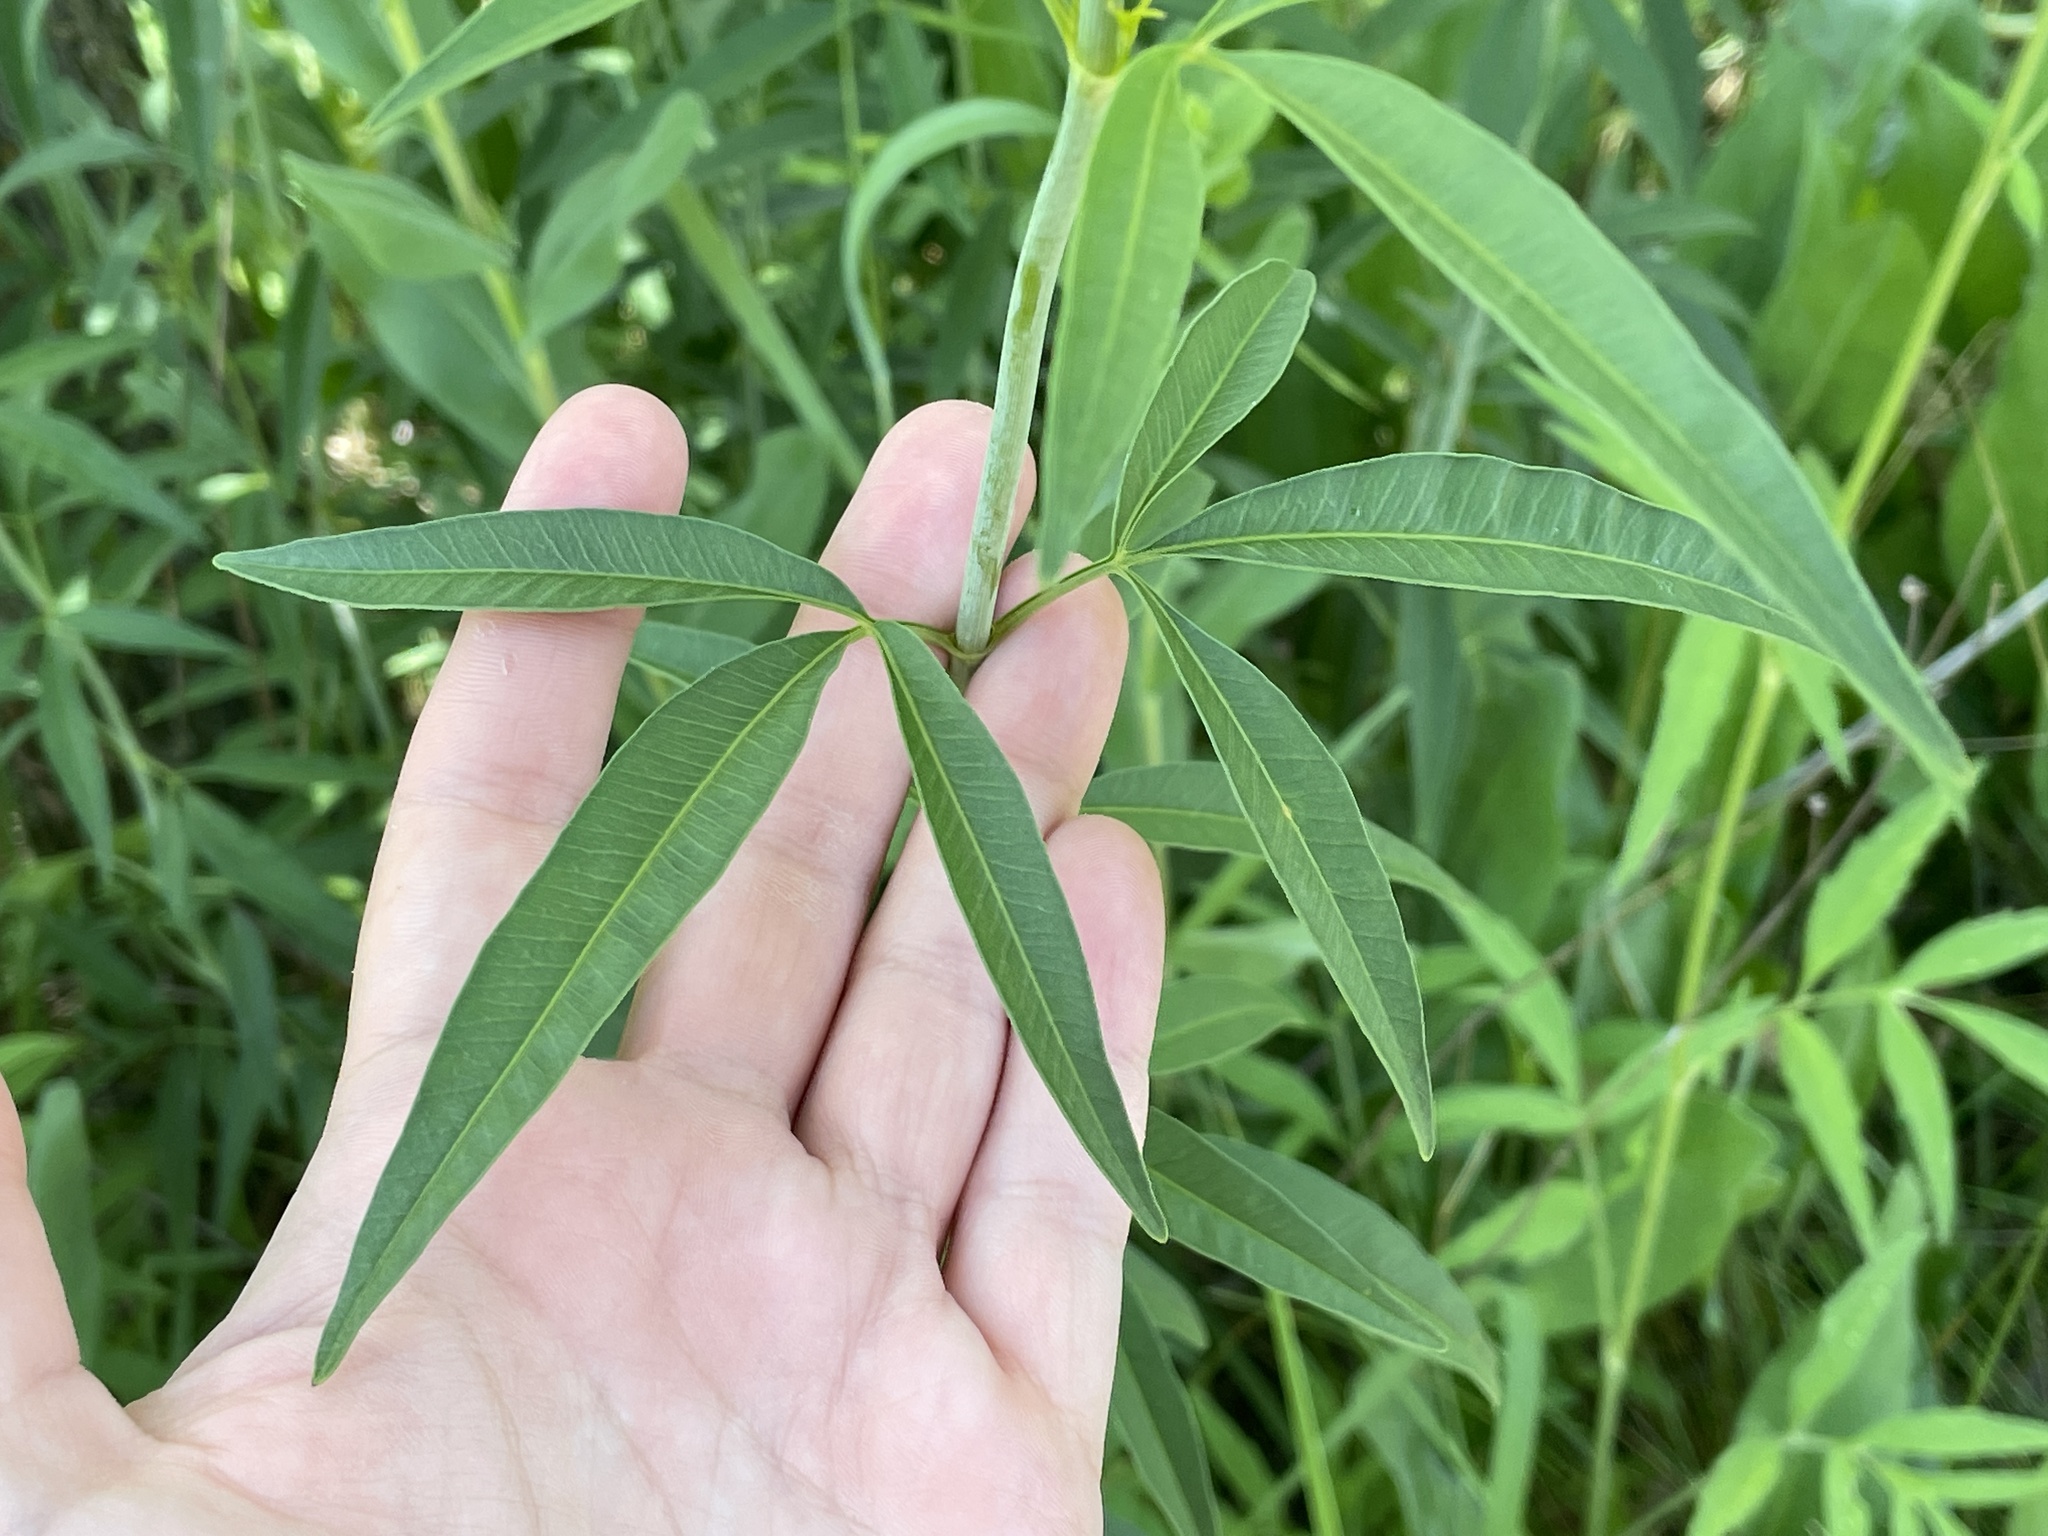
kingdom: Plantae
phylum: Tracheophyta
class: Magnoliopsida
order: Asterales
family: Asteraceae
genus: Coreopsis
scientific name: Coreopsis tripteris
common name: Tall coreopsis
